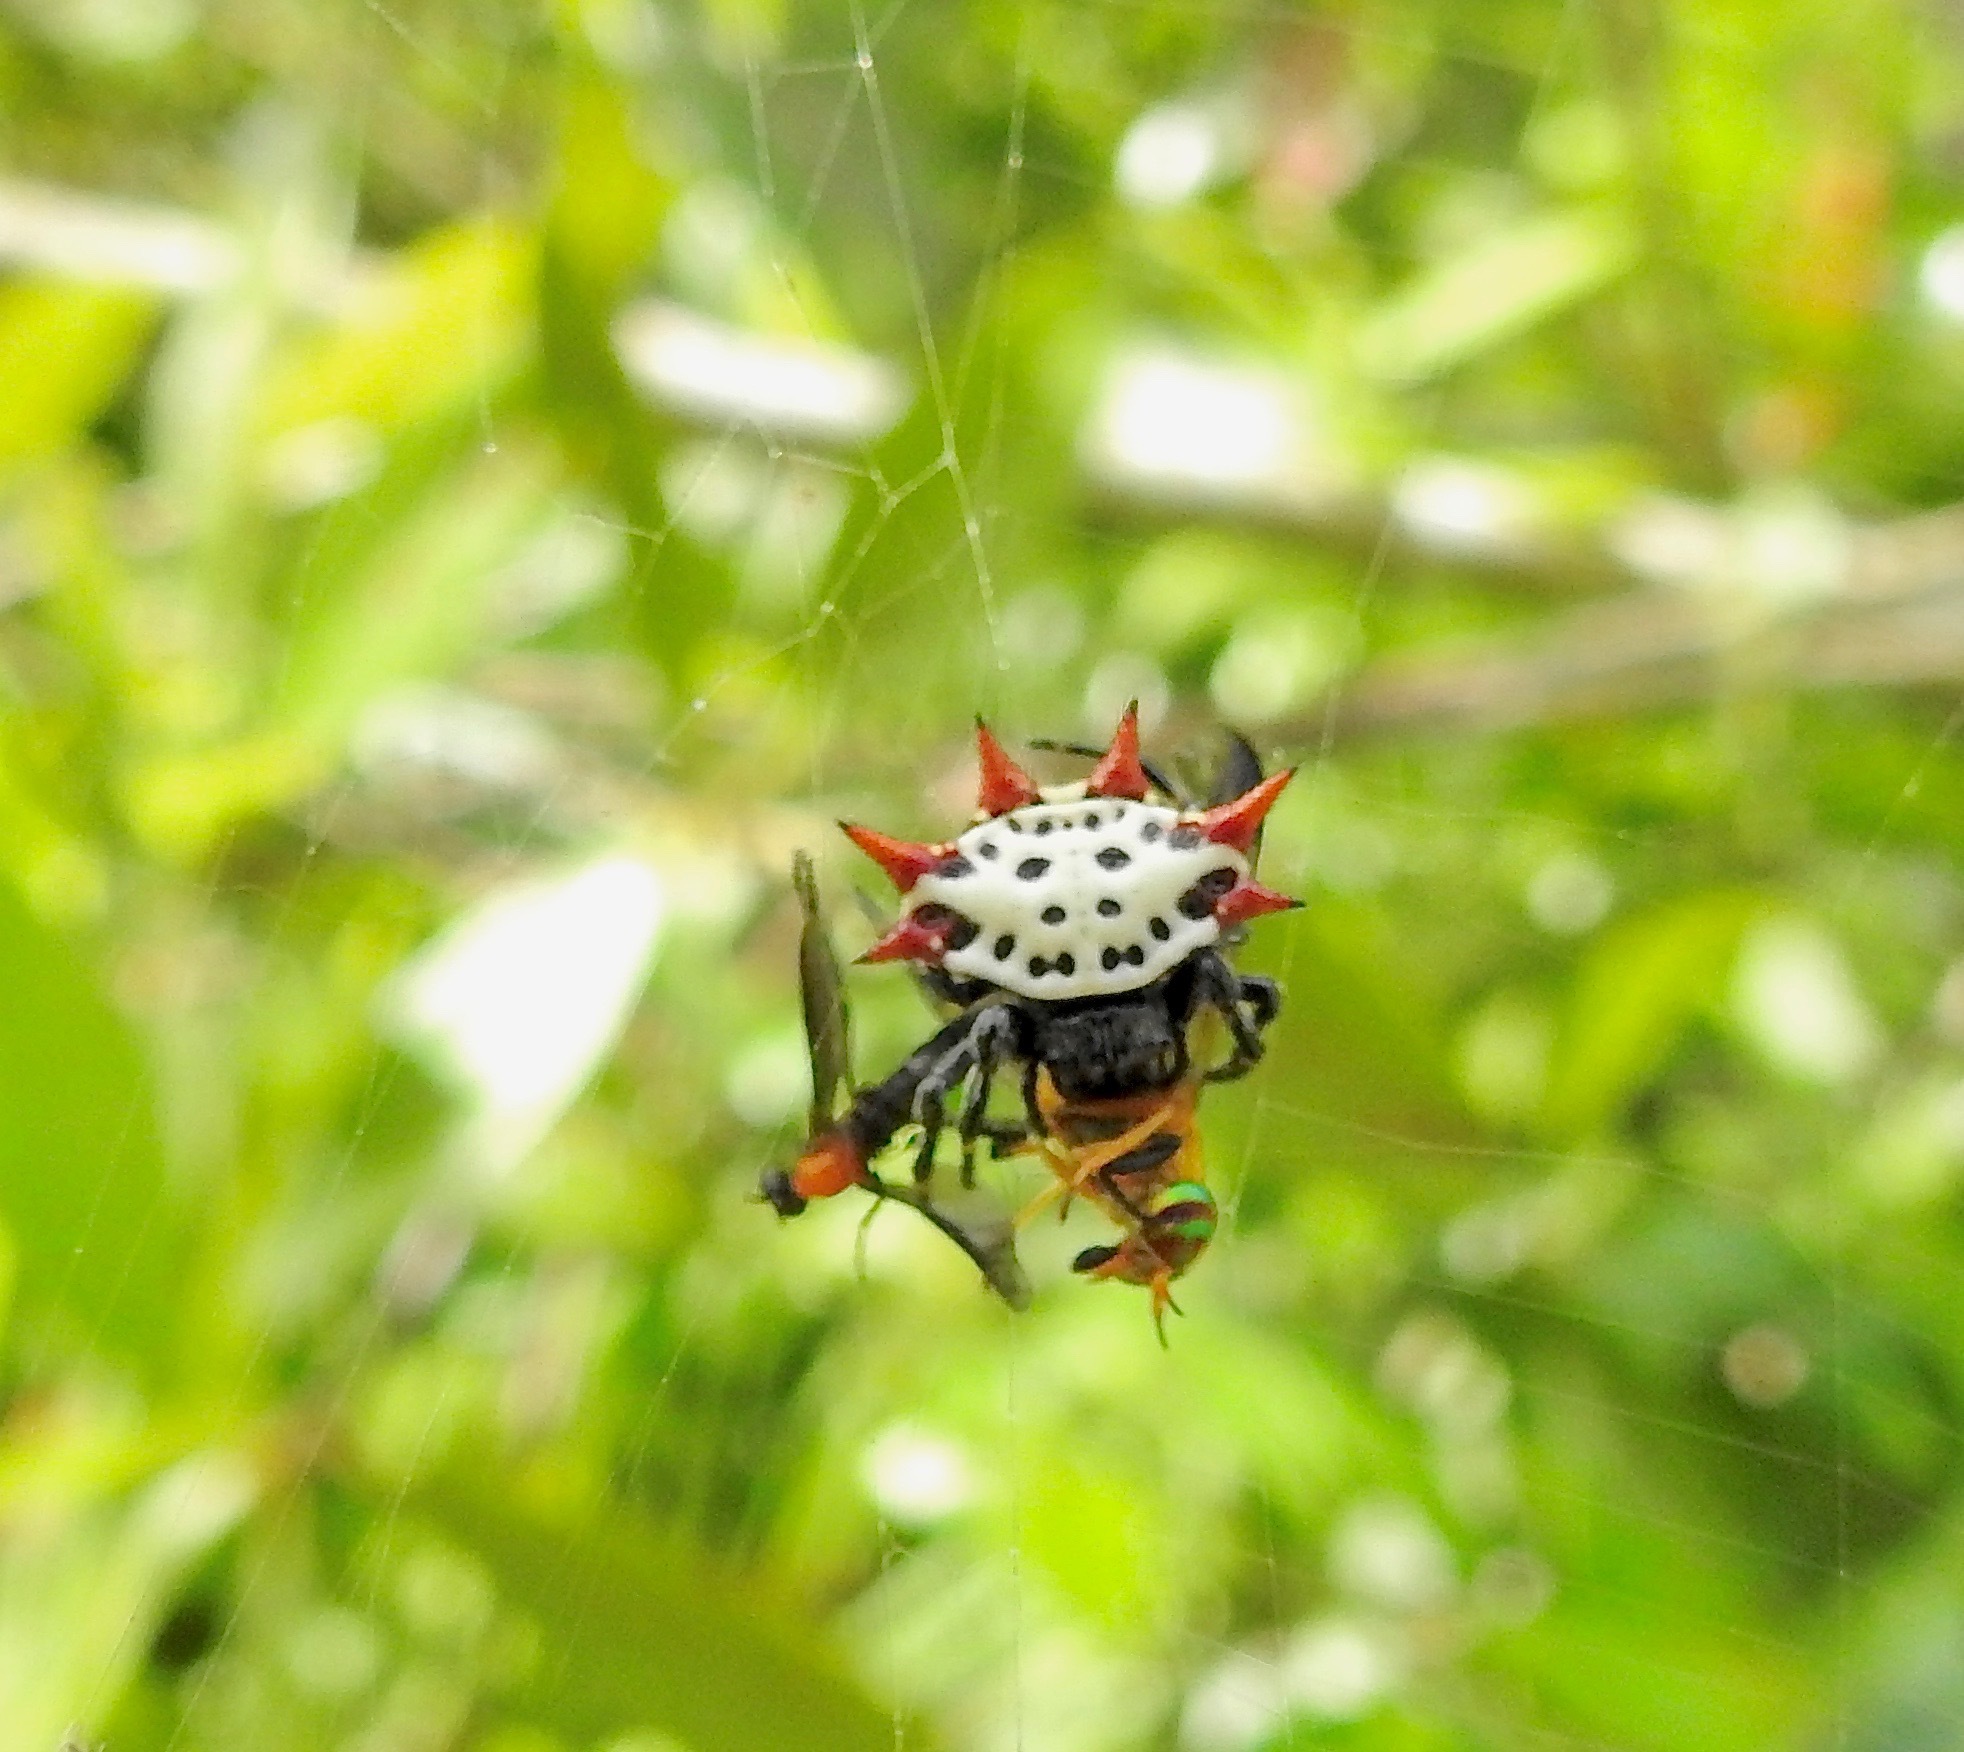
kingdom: Animalia
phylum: Arthropoda
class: Arachnida
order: Araneae
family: Araneidae
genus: Gasteracantha
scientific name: Gasteracantha cancriformis
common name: Orb weavers
